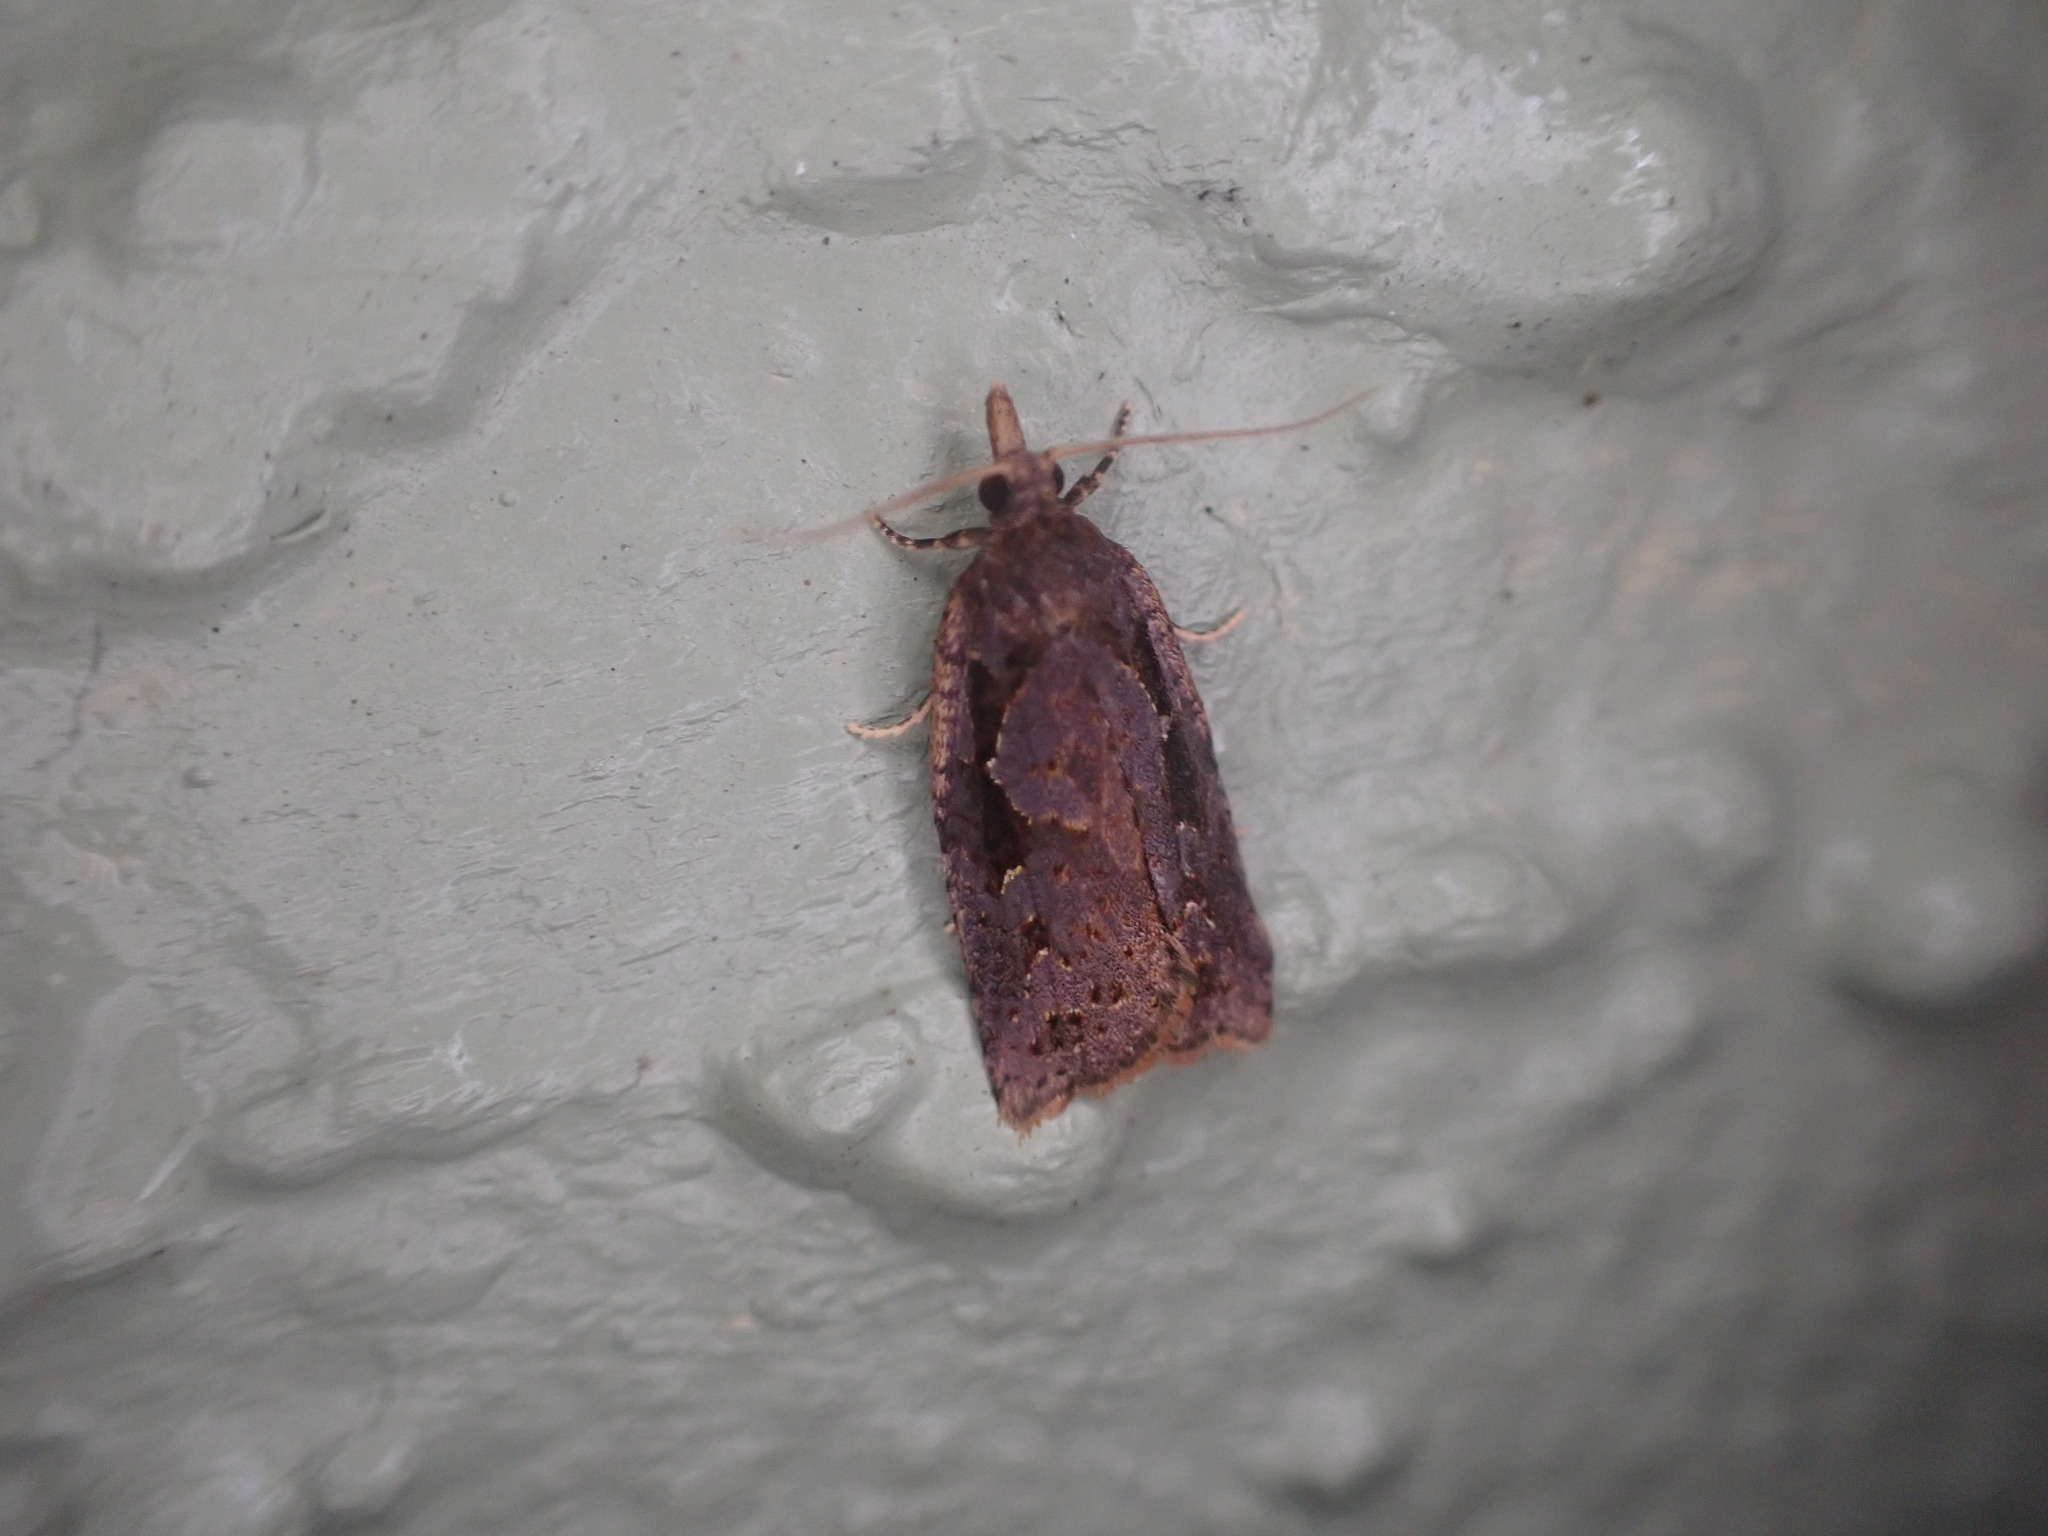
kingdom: Animalia
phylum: Arthropoda
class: Insecta
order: Lepidoptera
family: Tortricidae
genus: Ctenopseustis
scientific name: Ctenopseustis fraterna
